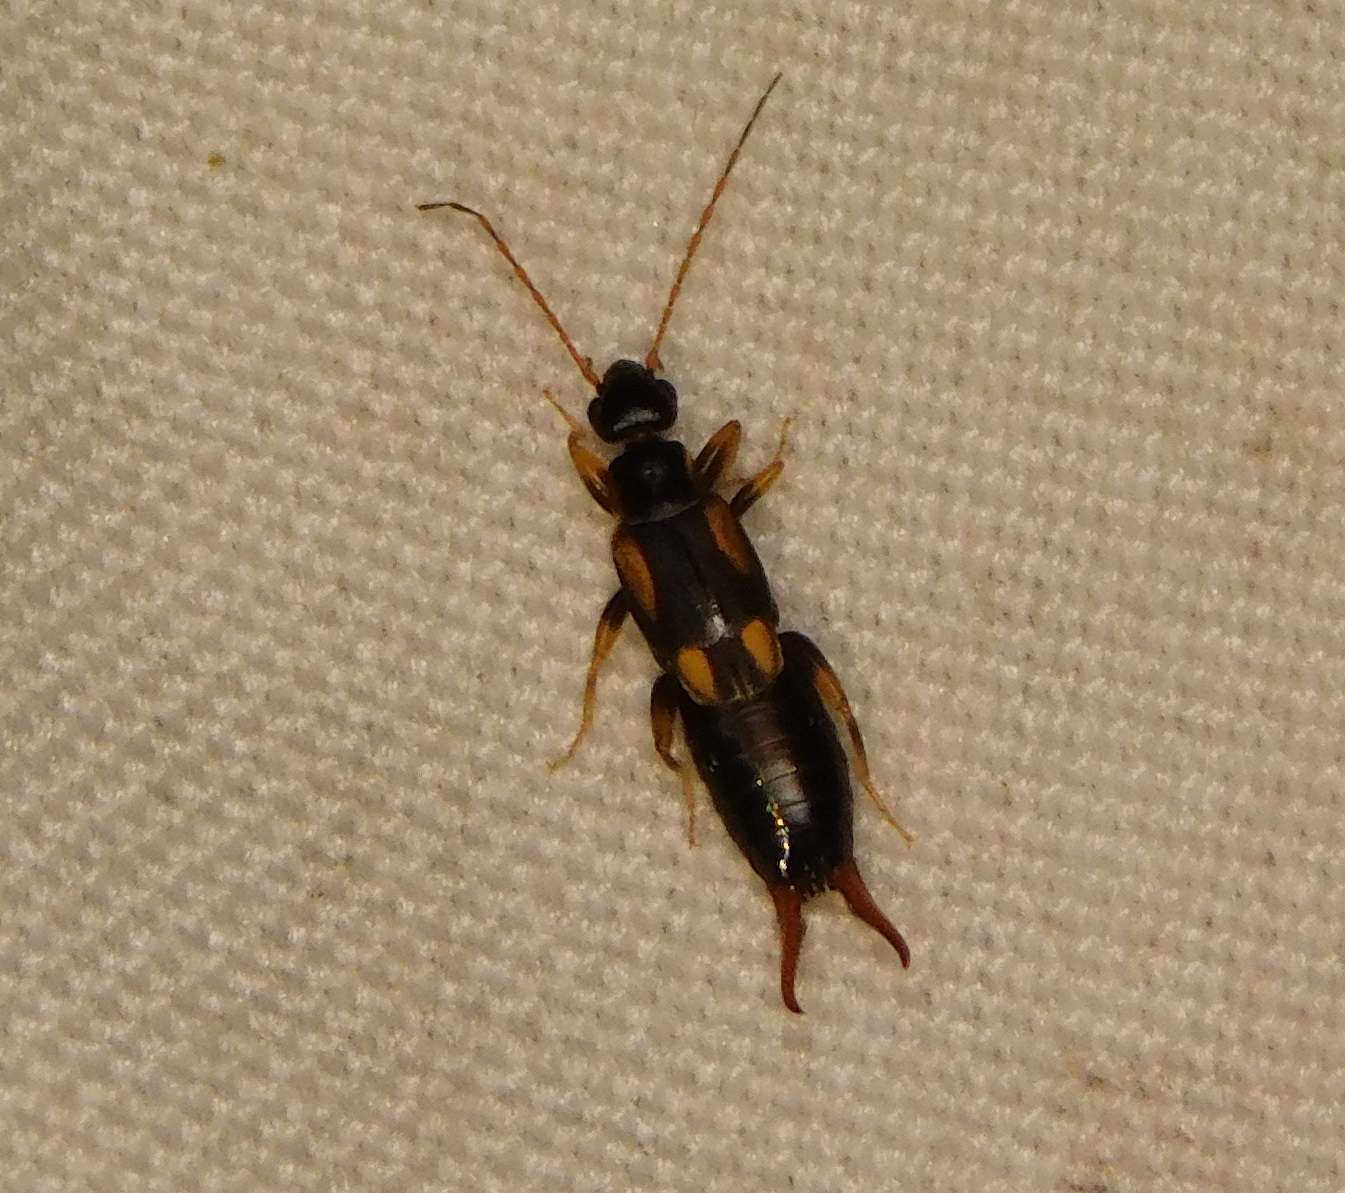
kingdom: Animalia
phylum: Arthropoda
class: Insecta
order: Dermaptera
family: Spongiphoridae
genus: Spongovostox
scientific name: Spongovostox anamalaiensis
